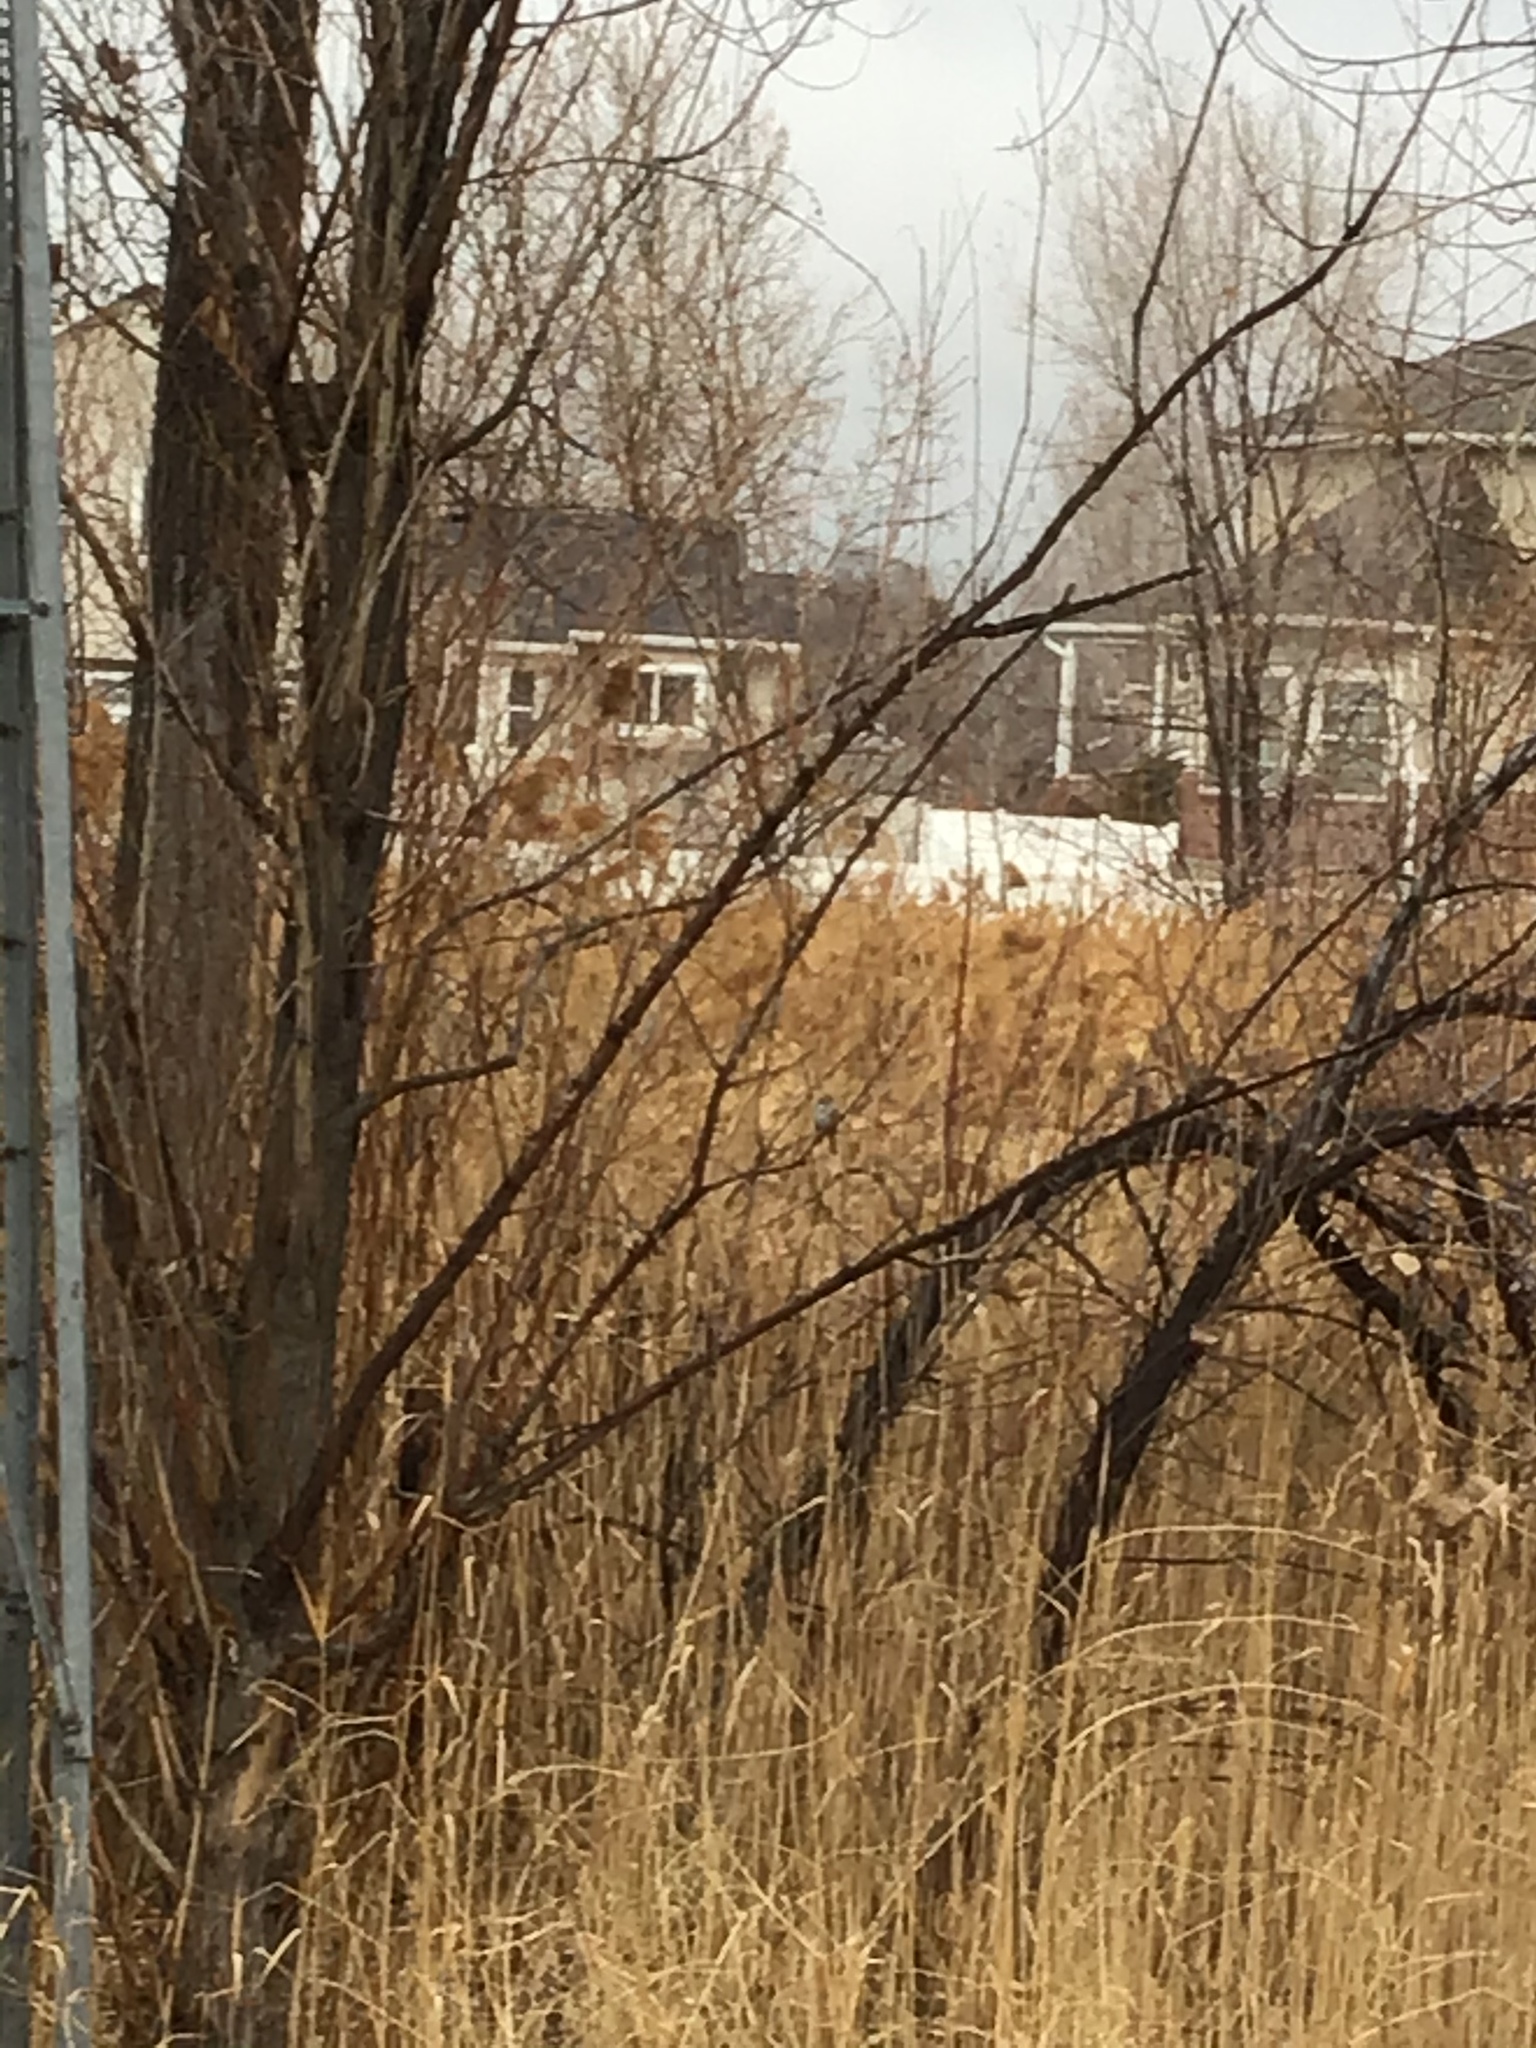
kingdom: Animalia
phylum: Chordata
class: Aves
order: Passeriformes
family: Passerellidae
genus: Melospiza
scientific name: Melospiza melodia
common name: Song sparrow
